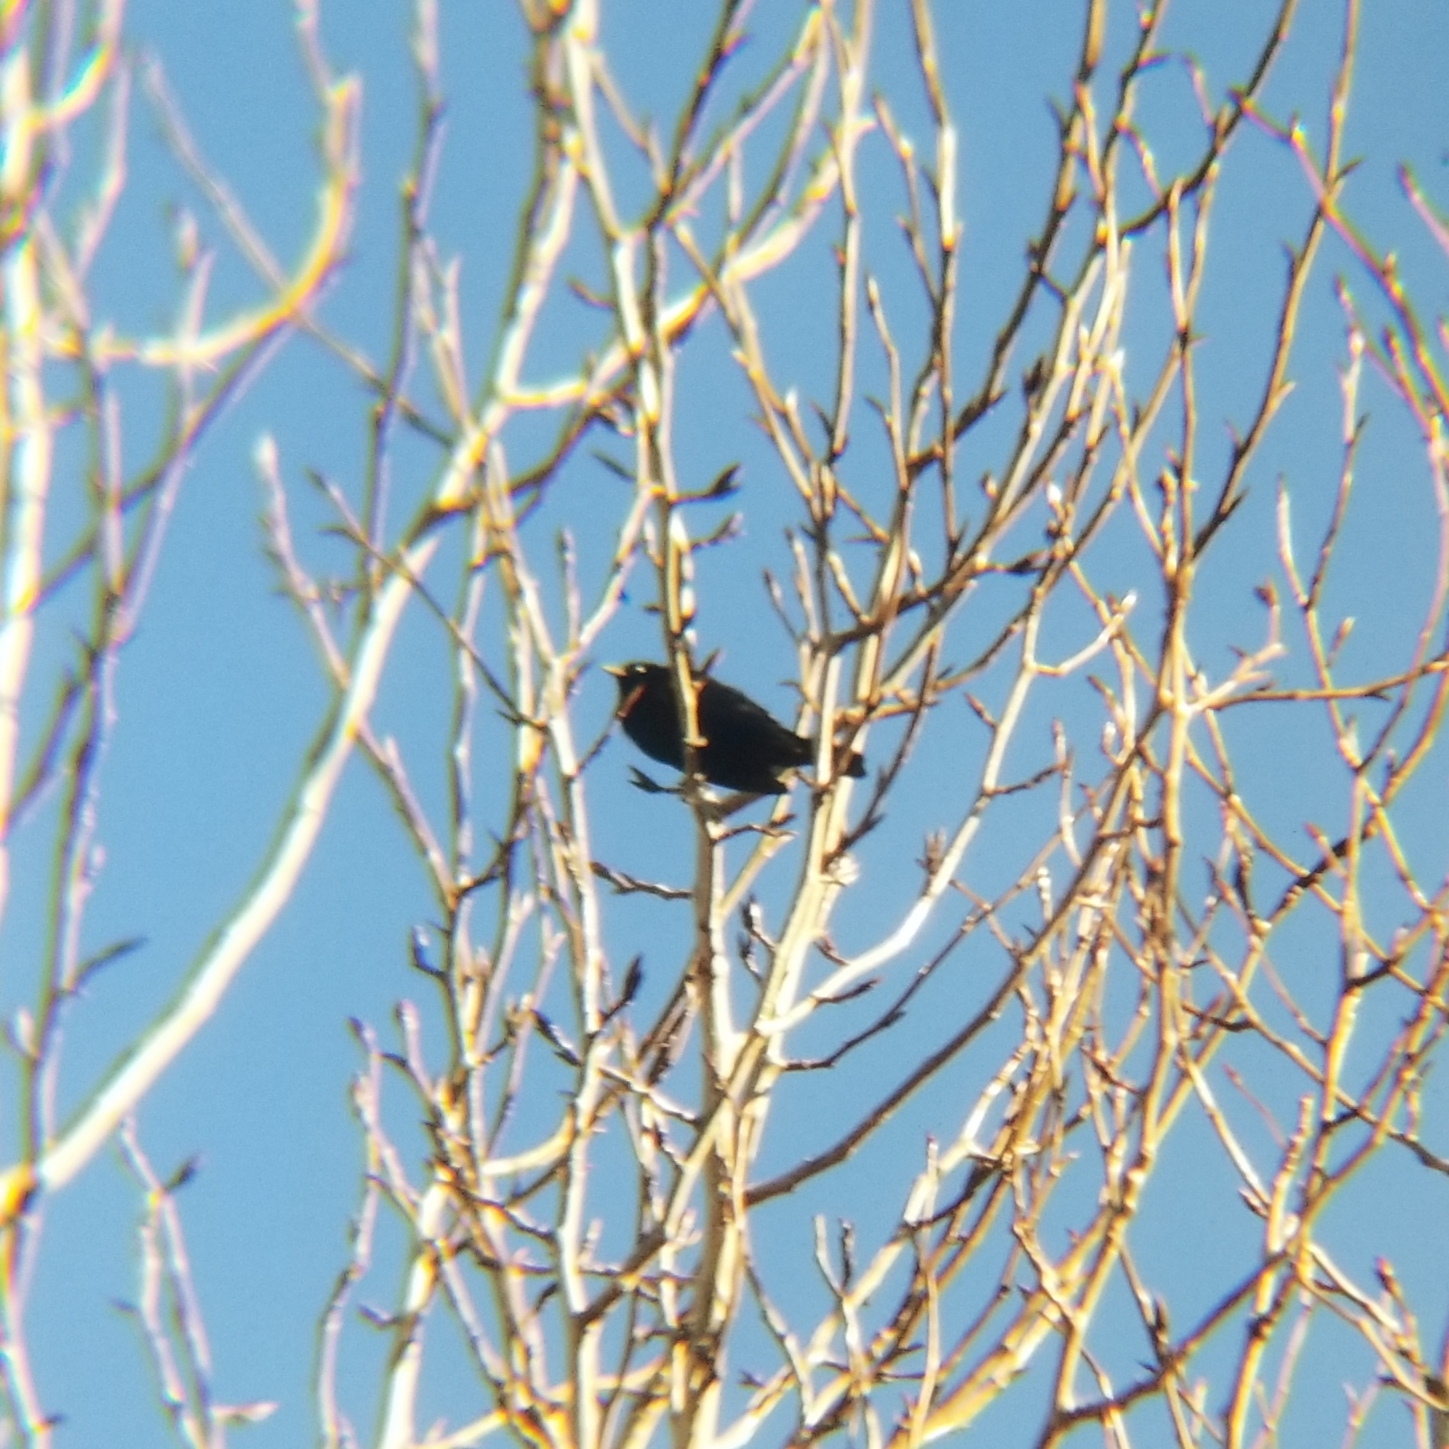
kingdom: Animalia
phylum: Chordata
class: Aves
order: Passeriformes
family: Icteridae
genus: Agelaius
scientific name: Agelaius phoeniceus
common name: Red-winged blackbird
